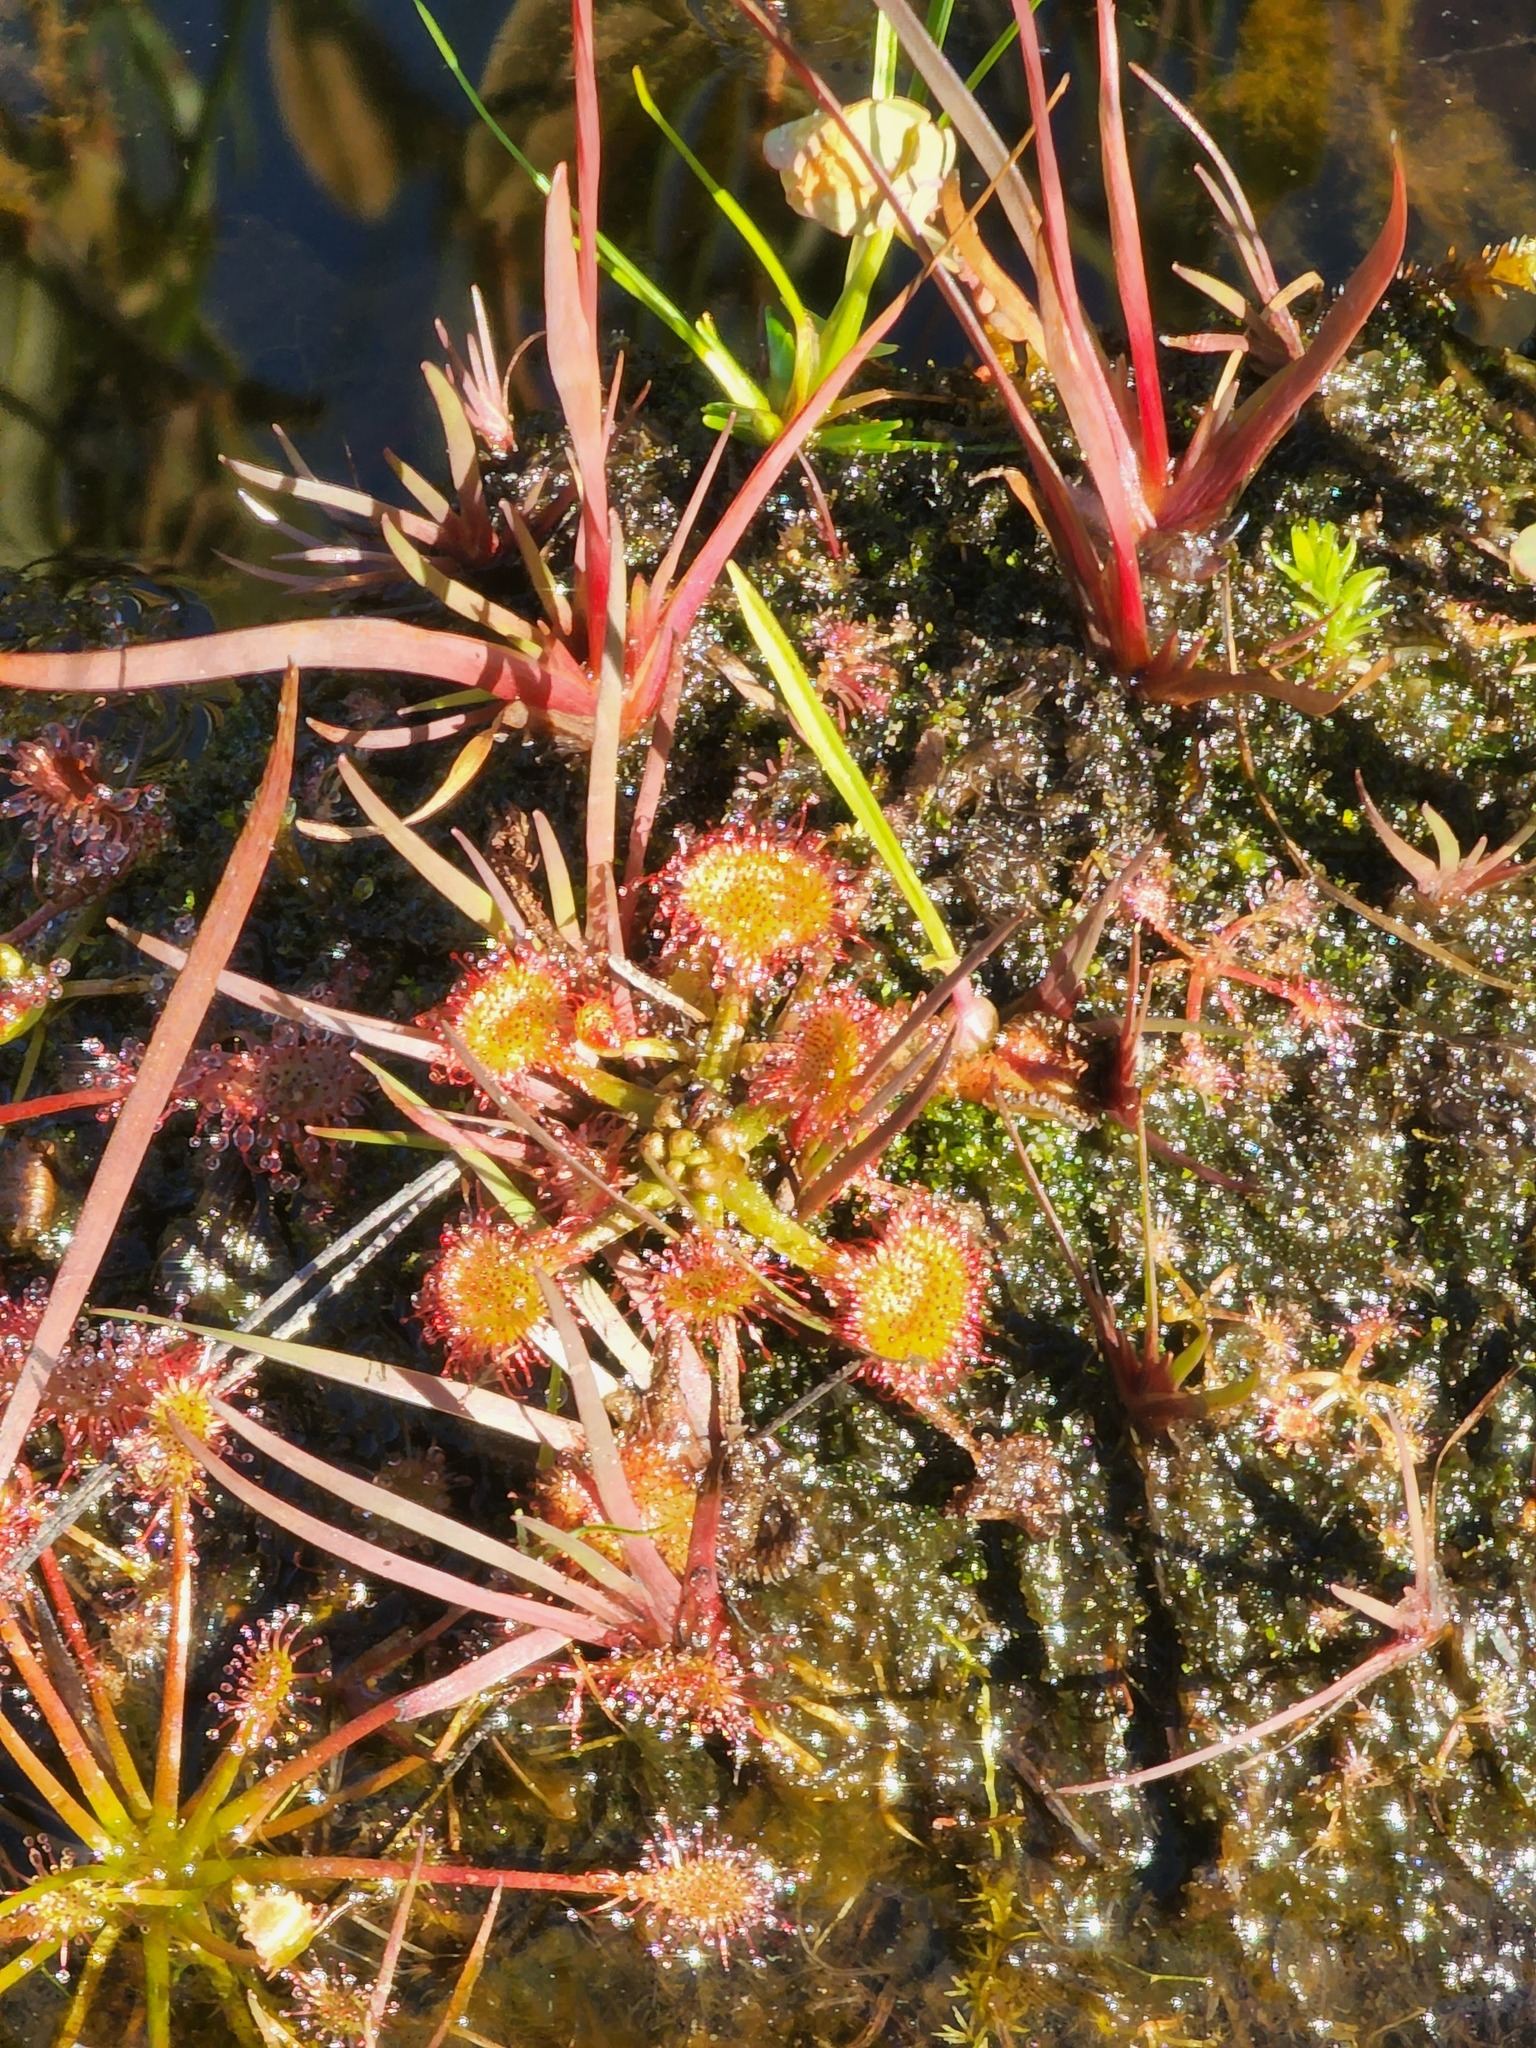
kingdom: Plantae
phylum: Tracheophyta
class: Magnoliopsida
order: Caryophyllales
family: Droseraceae
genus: Drosera
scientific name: Drosera rotundifolia
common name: Round-leaved sundew
